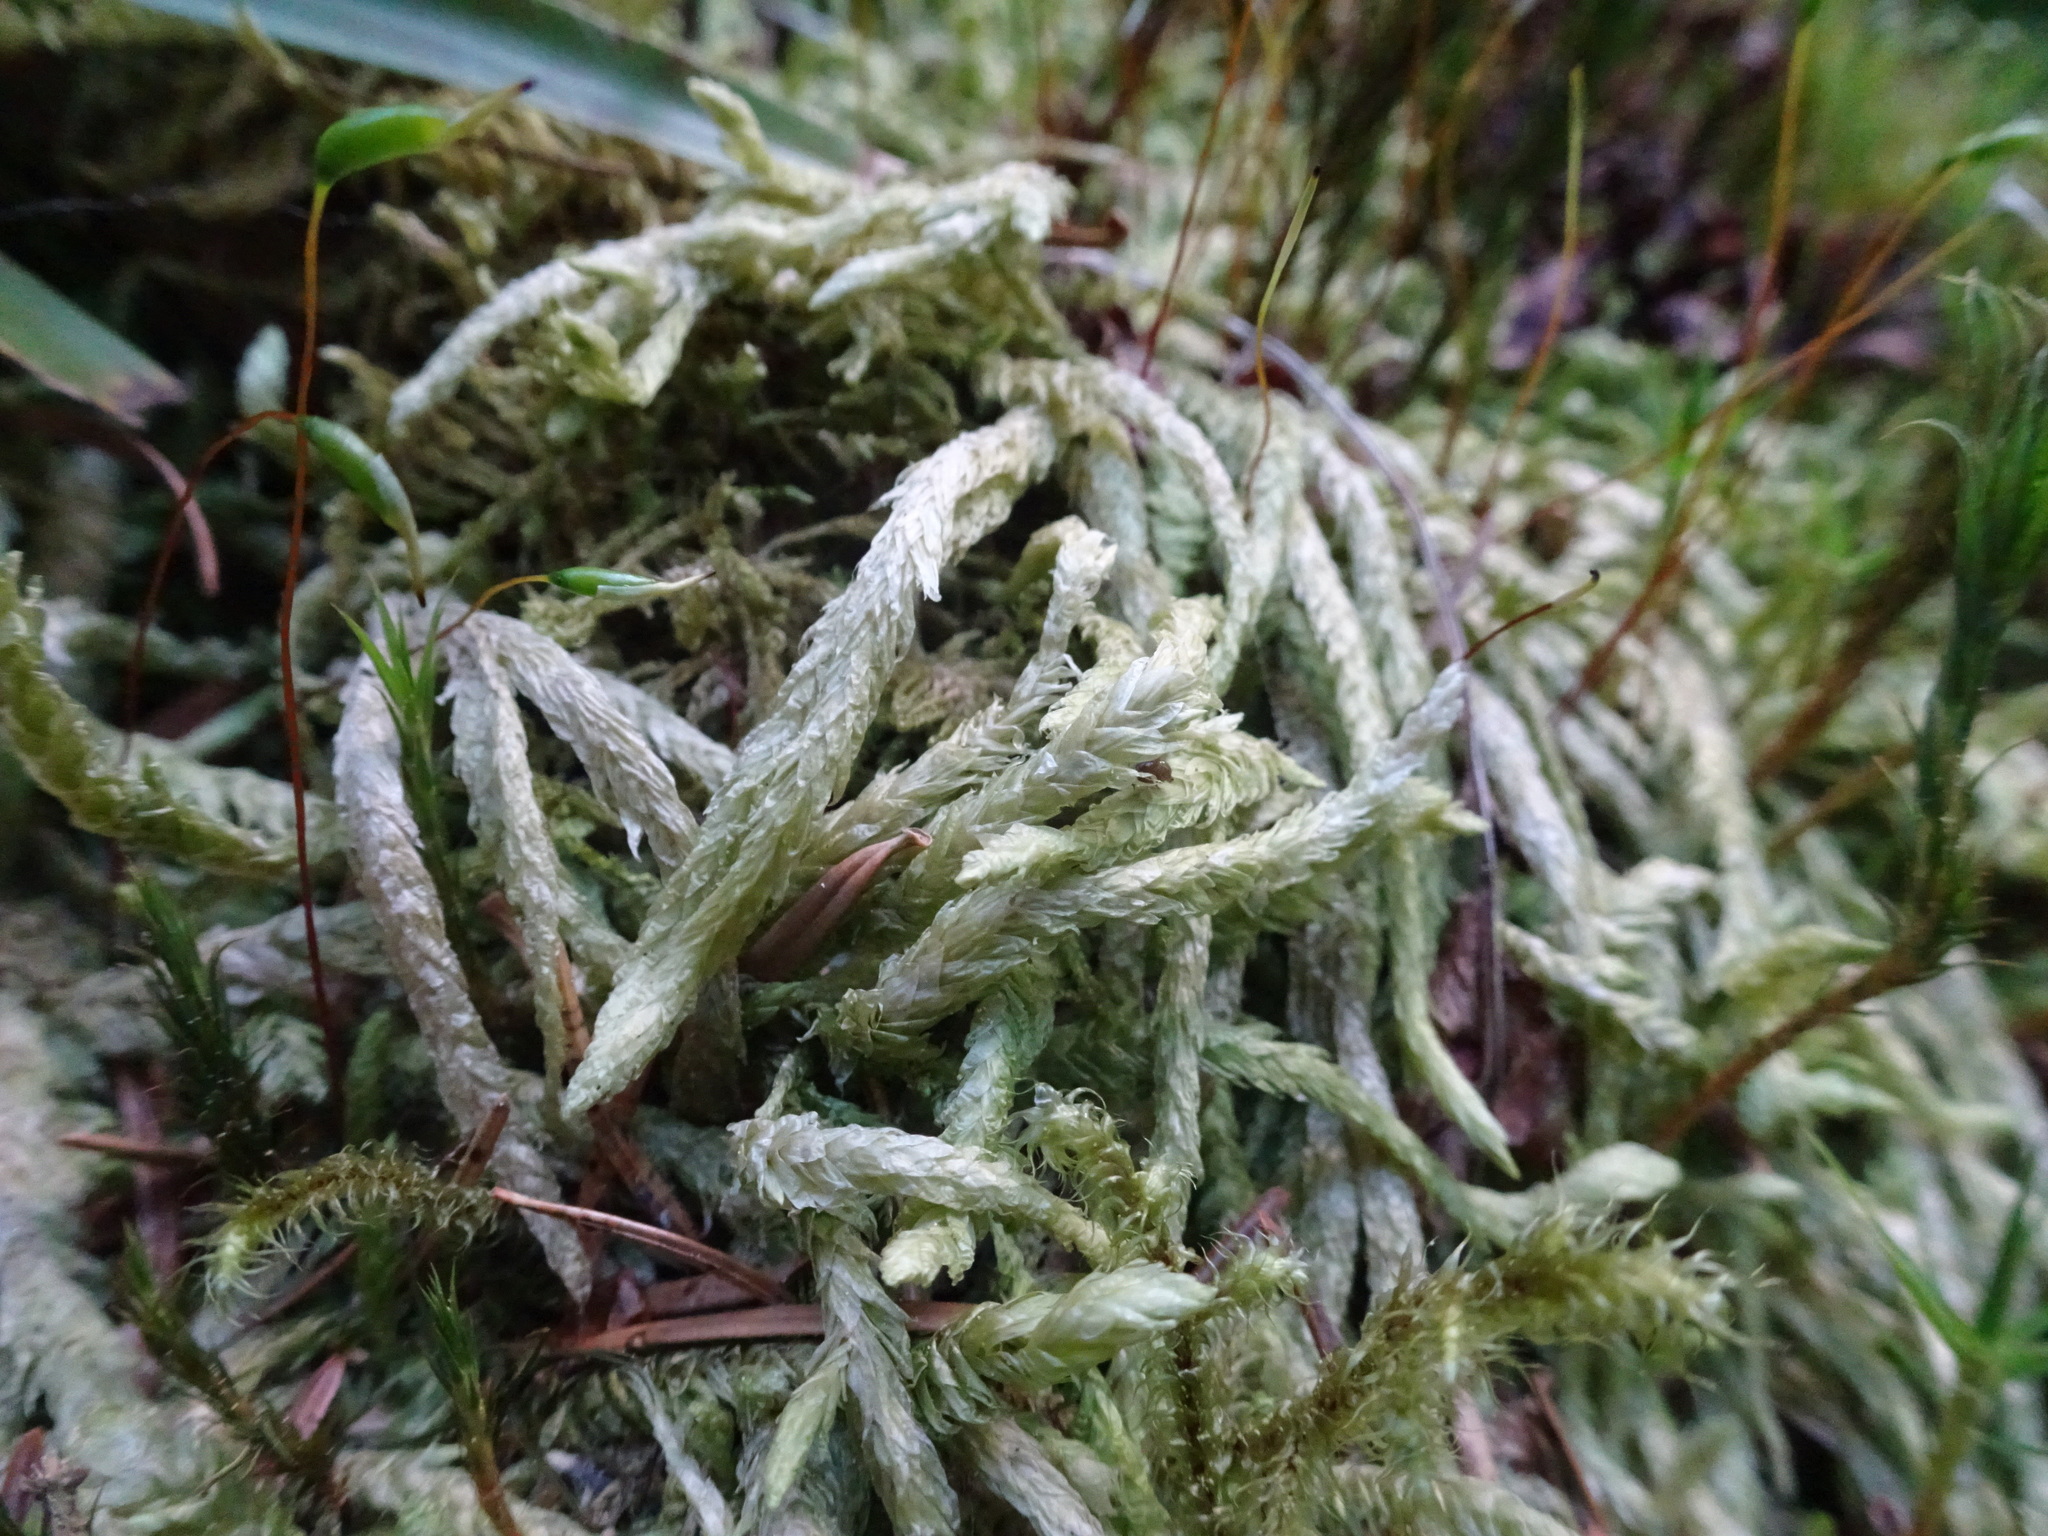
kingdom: Plantae
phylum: Bryophyta
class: Bryopsida
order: Hypnales
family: Plagiotheciaceae
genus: Plagiothecium
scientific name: Plagiothecium undulatum
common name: Waved silk-moss
